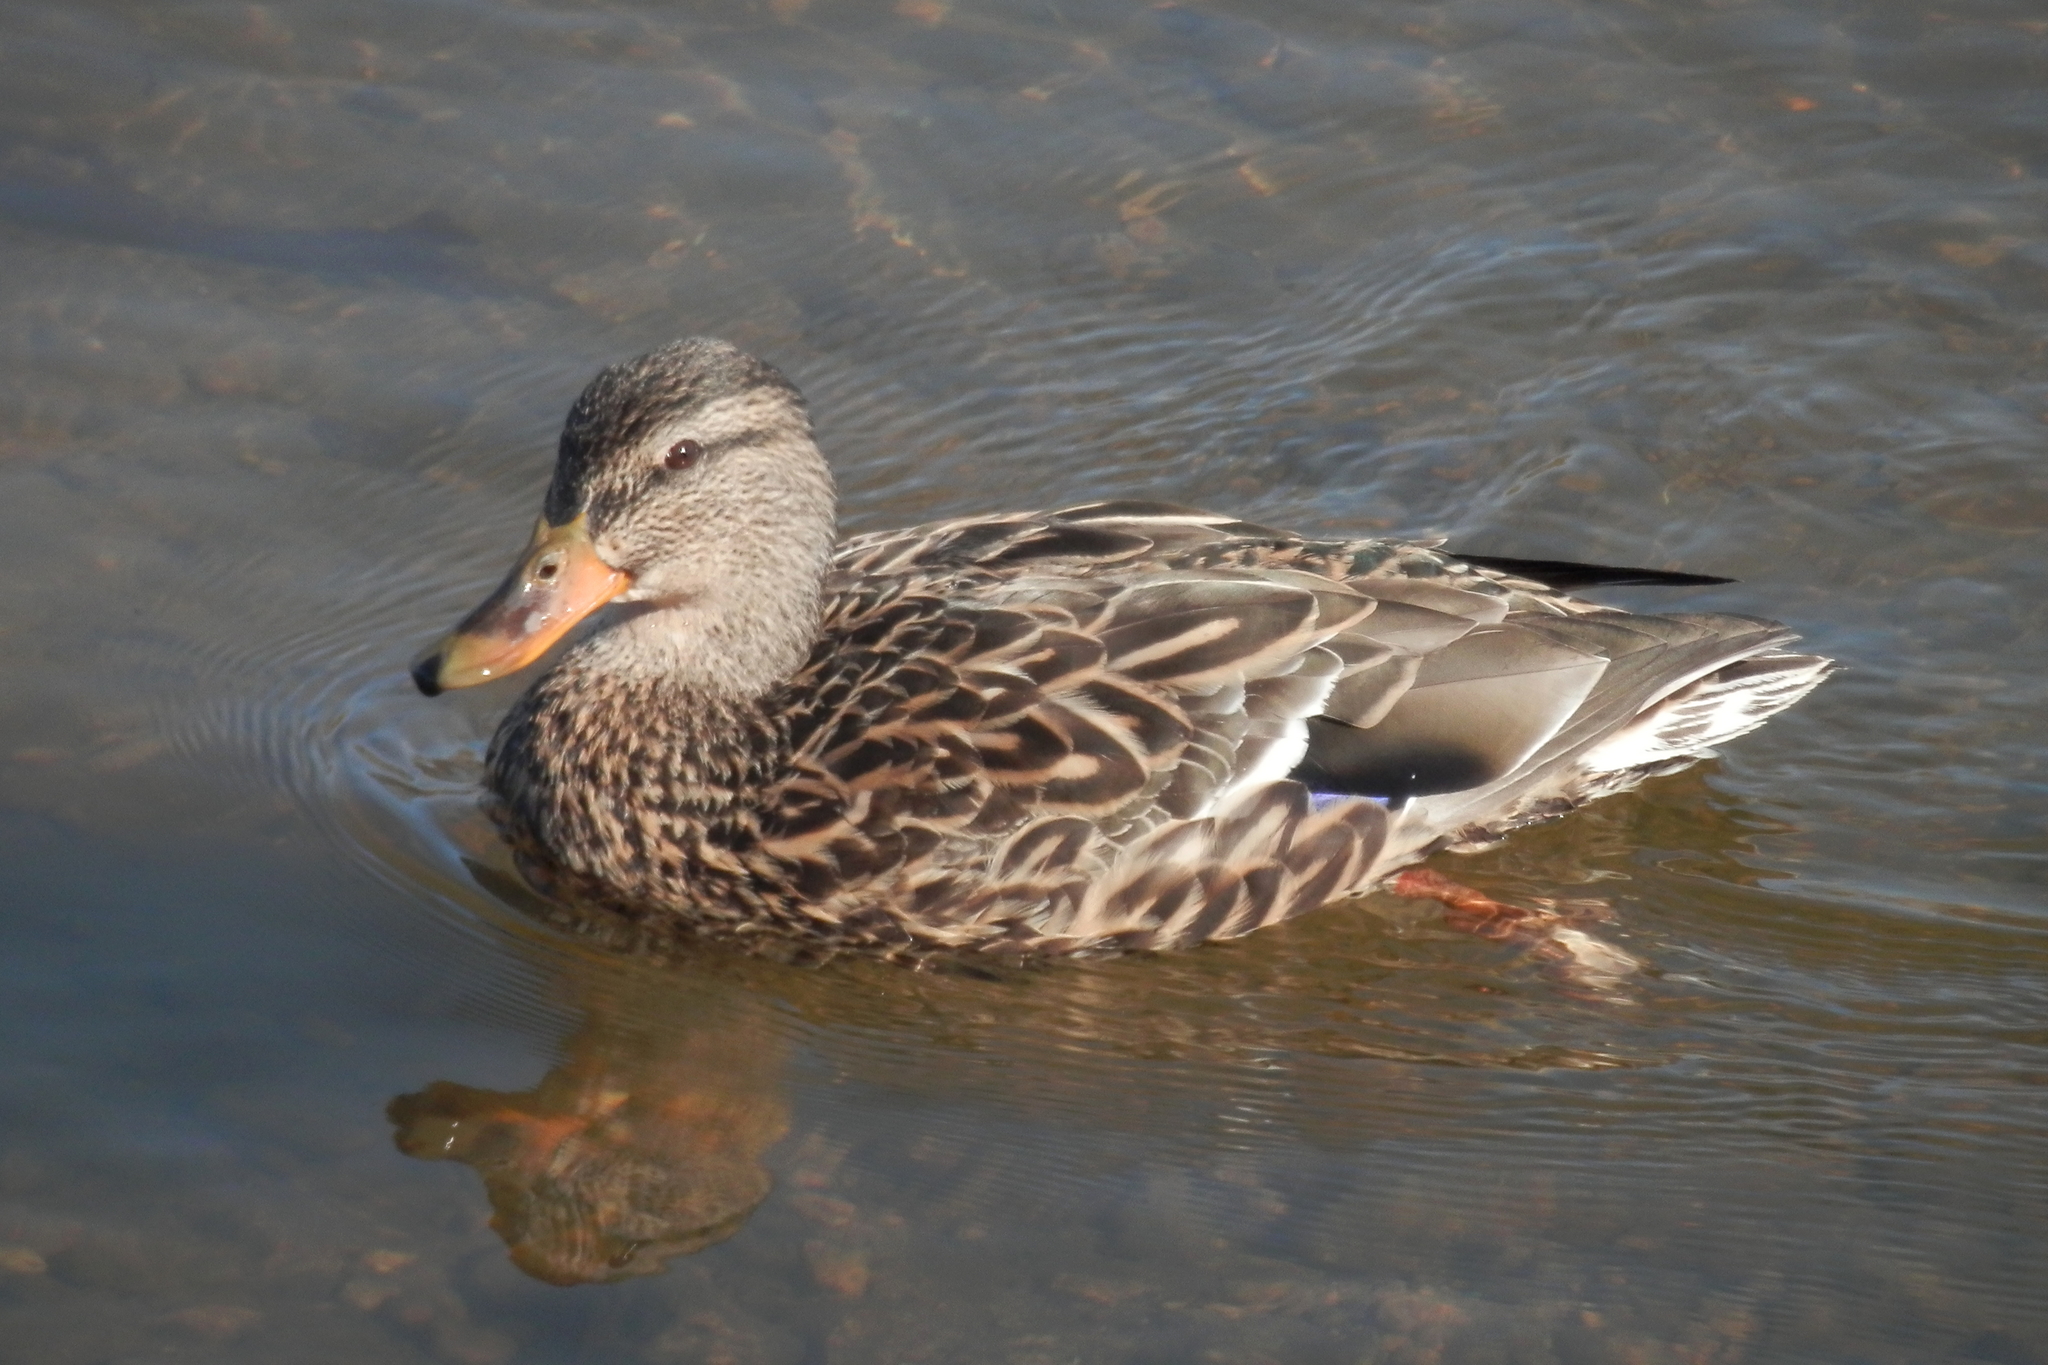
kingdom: Animalia
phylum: Chordata
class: Aves
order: Anseriformes
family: Anatidae
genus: Anas
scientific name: Anas platyrhynchos
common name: Mallard
